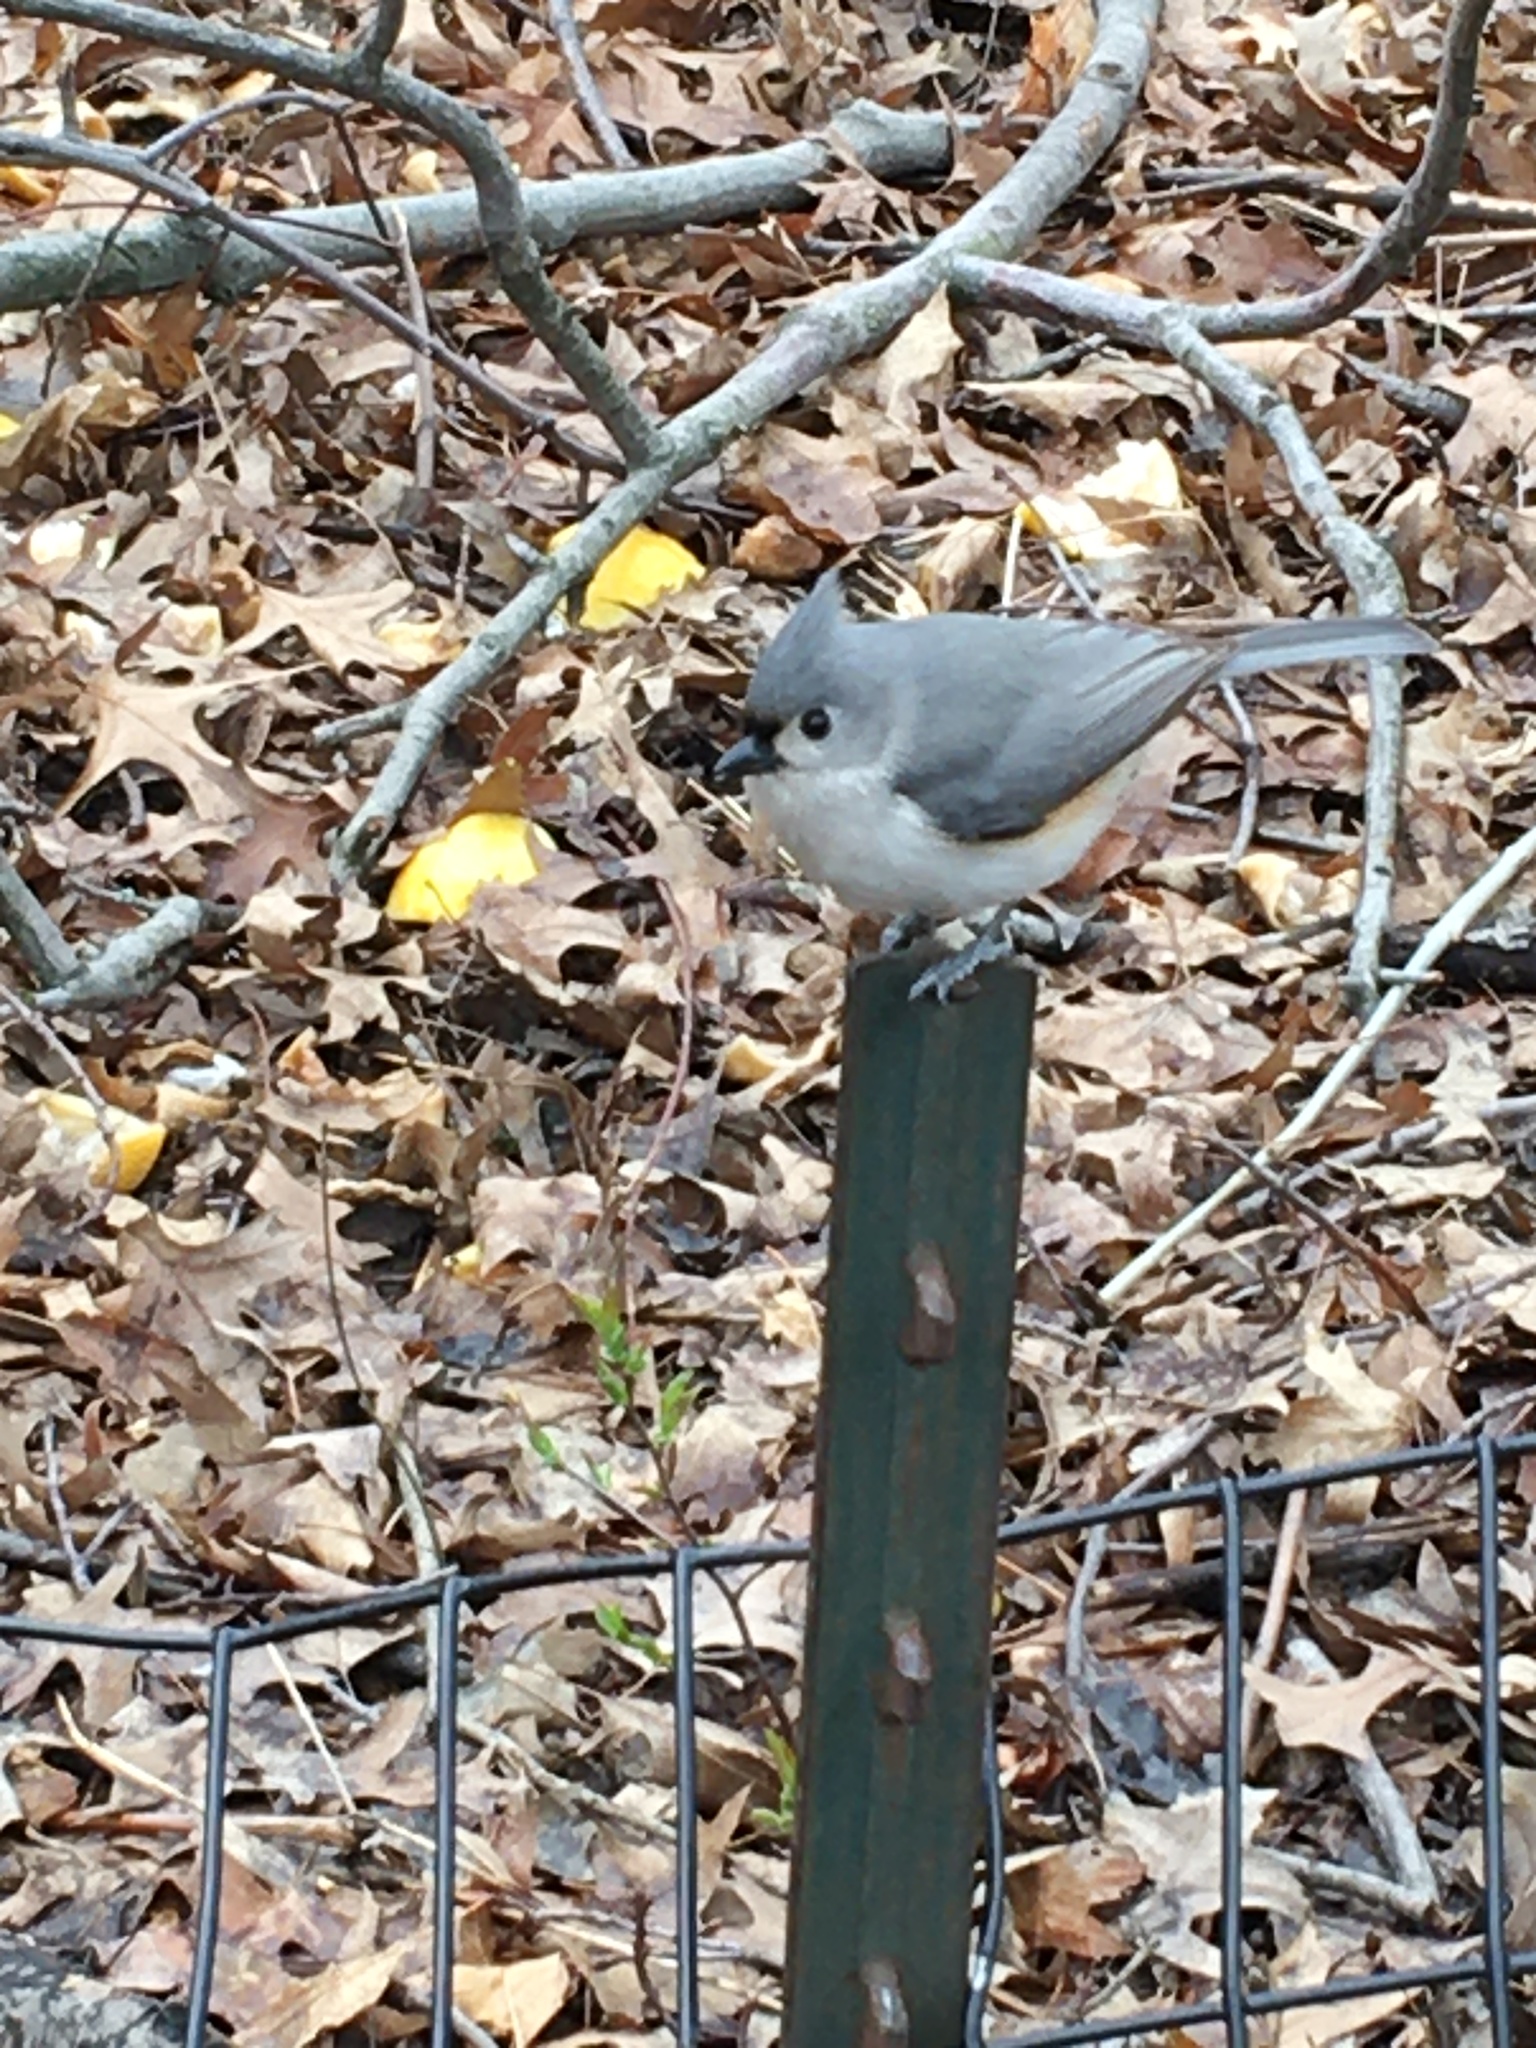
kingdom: Animalia
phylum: Chordata
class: Aves
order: Passeriformes
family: Paridae
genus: Baeolophus
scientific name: Baeolophus bicolor
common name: Tufted titmouse
